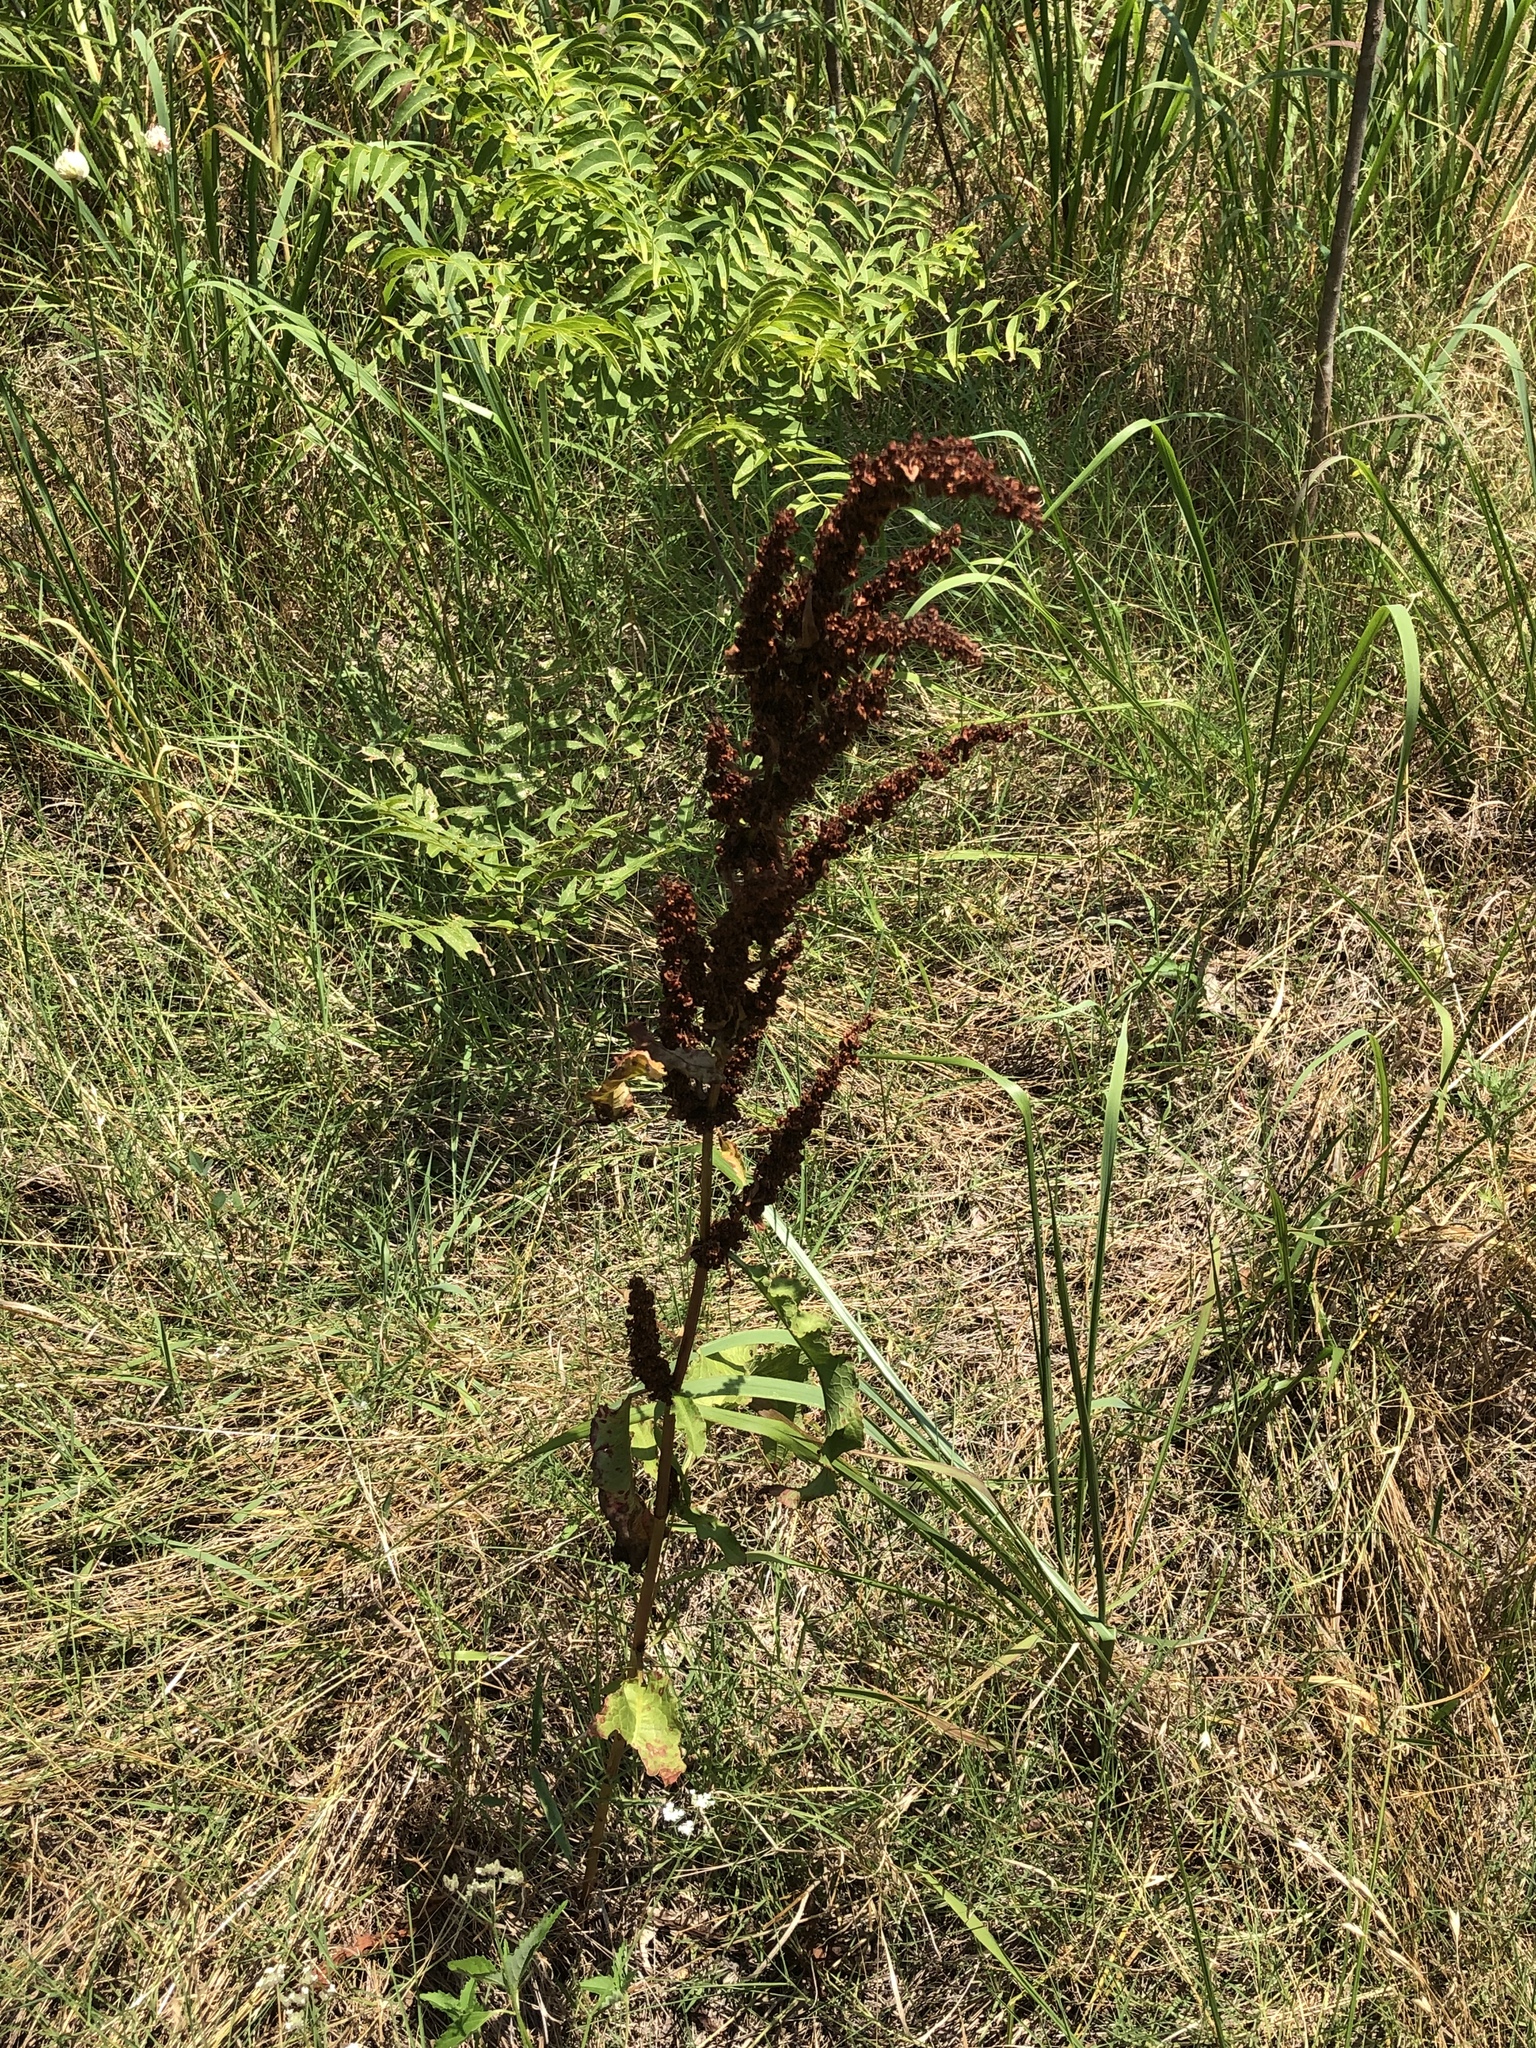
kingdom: Plantae
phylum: Tracheophyta
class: Magnoliopsida
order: Caryophyllales
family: Polygonaceae
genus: Rumex
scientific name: Rumex crispus
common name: Curled dock
